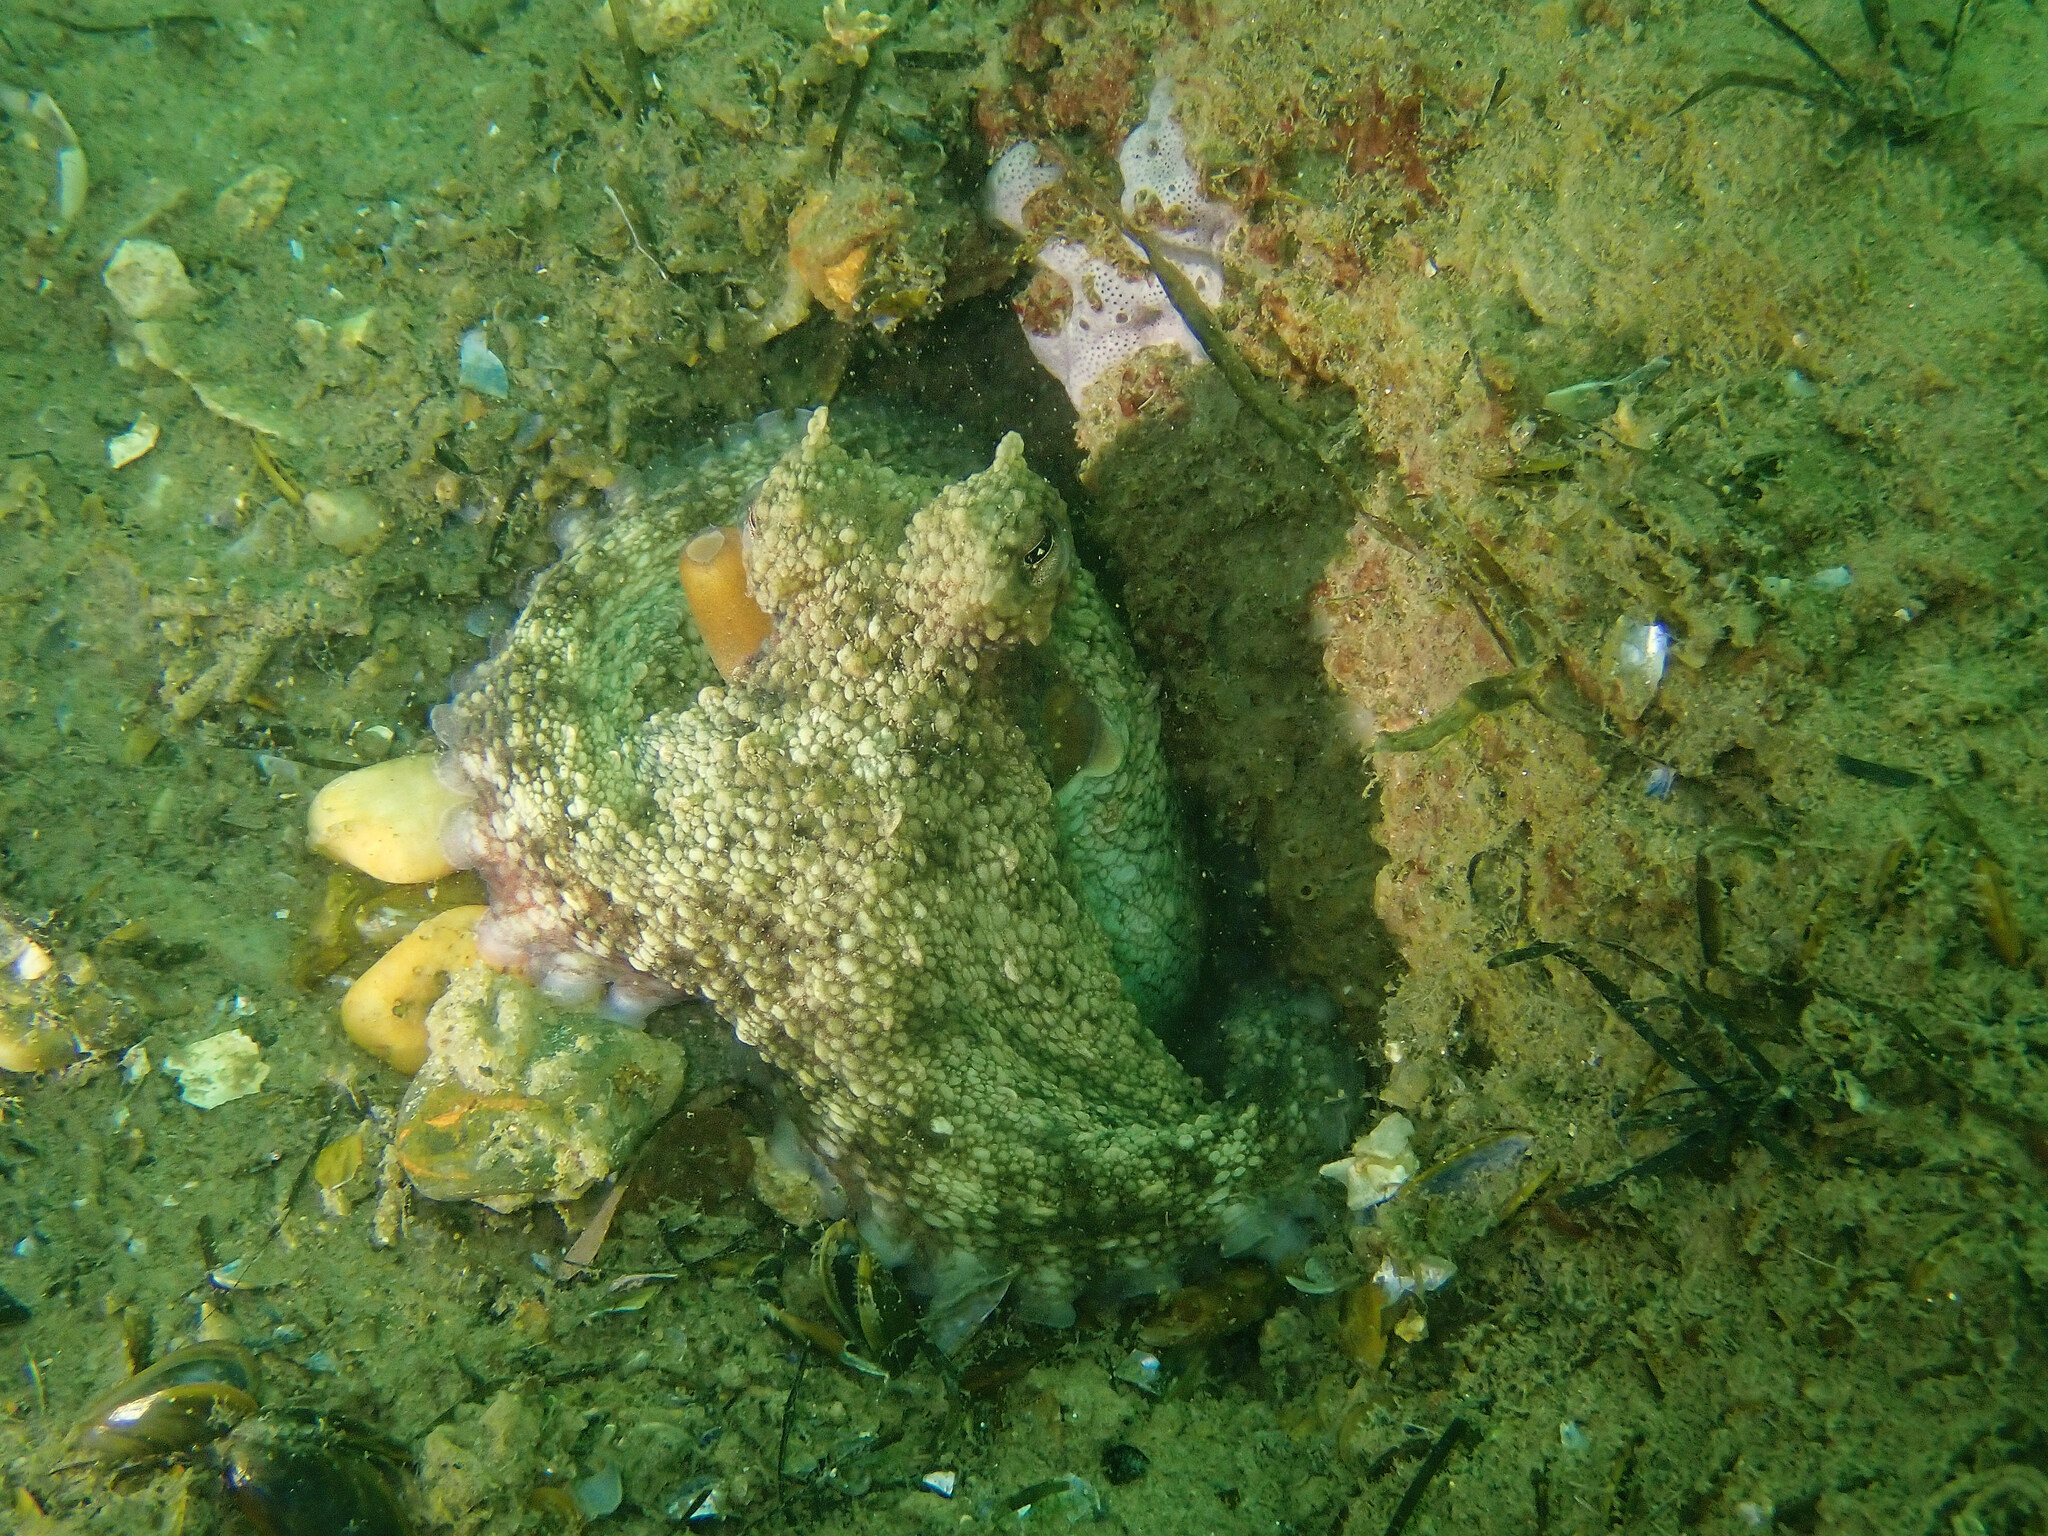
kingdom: Animalia
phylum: Mollusca
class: Cephalopoda
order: Octopoda
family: Octopodidae
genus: Octopus
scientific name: Octopus vulgaris
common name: Common octopus
